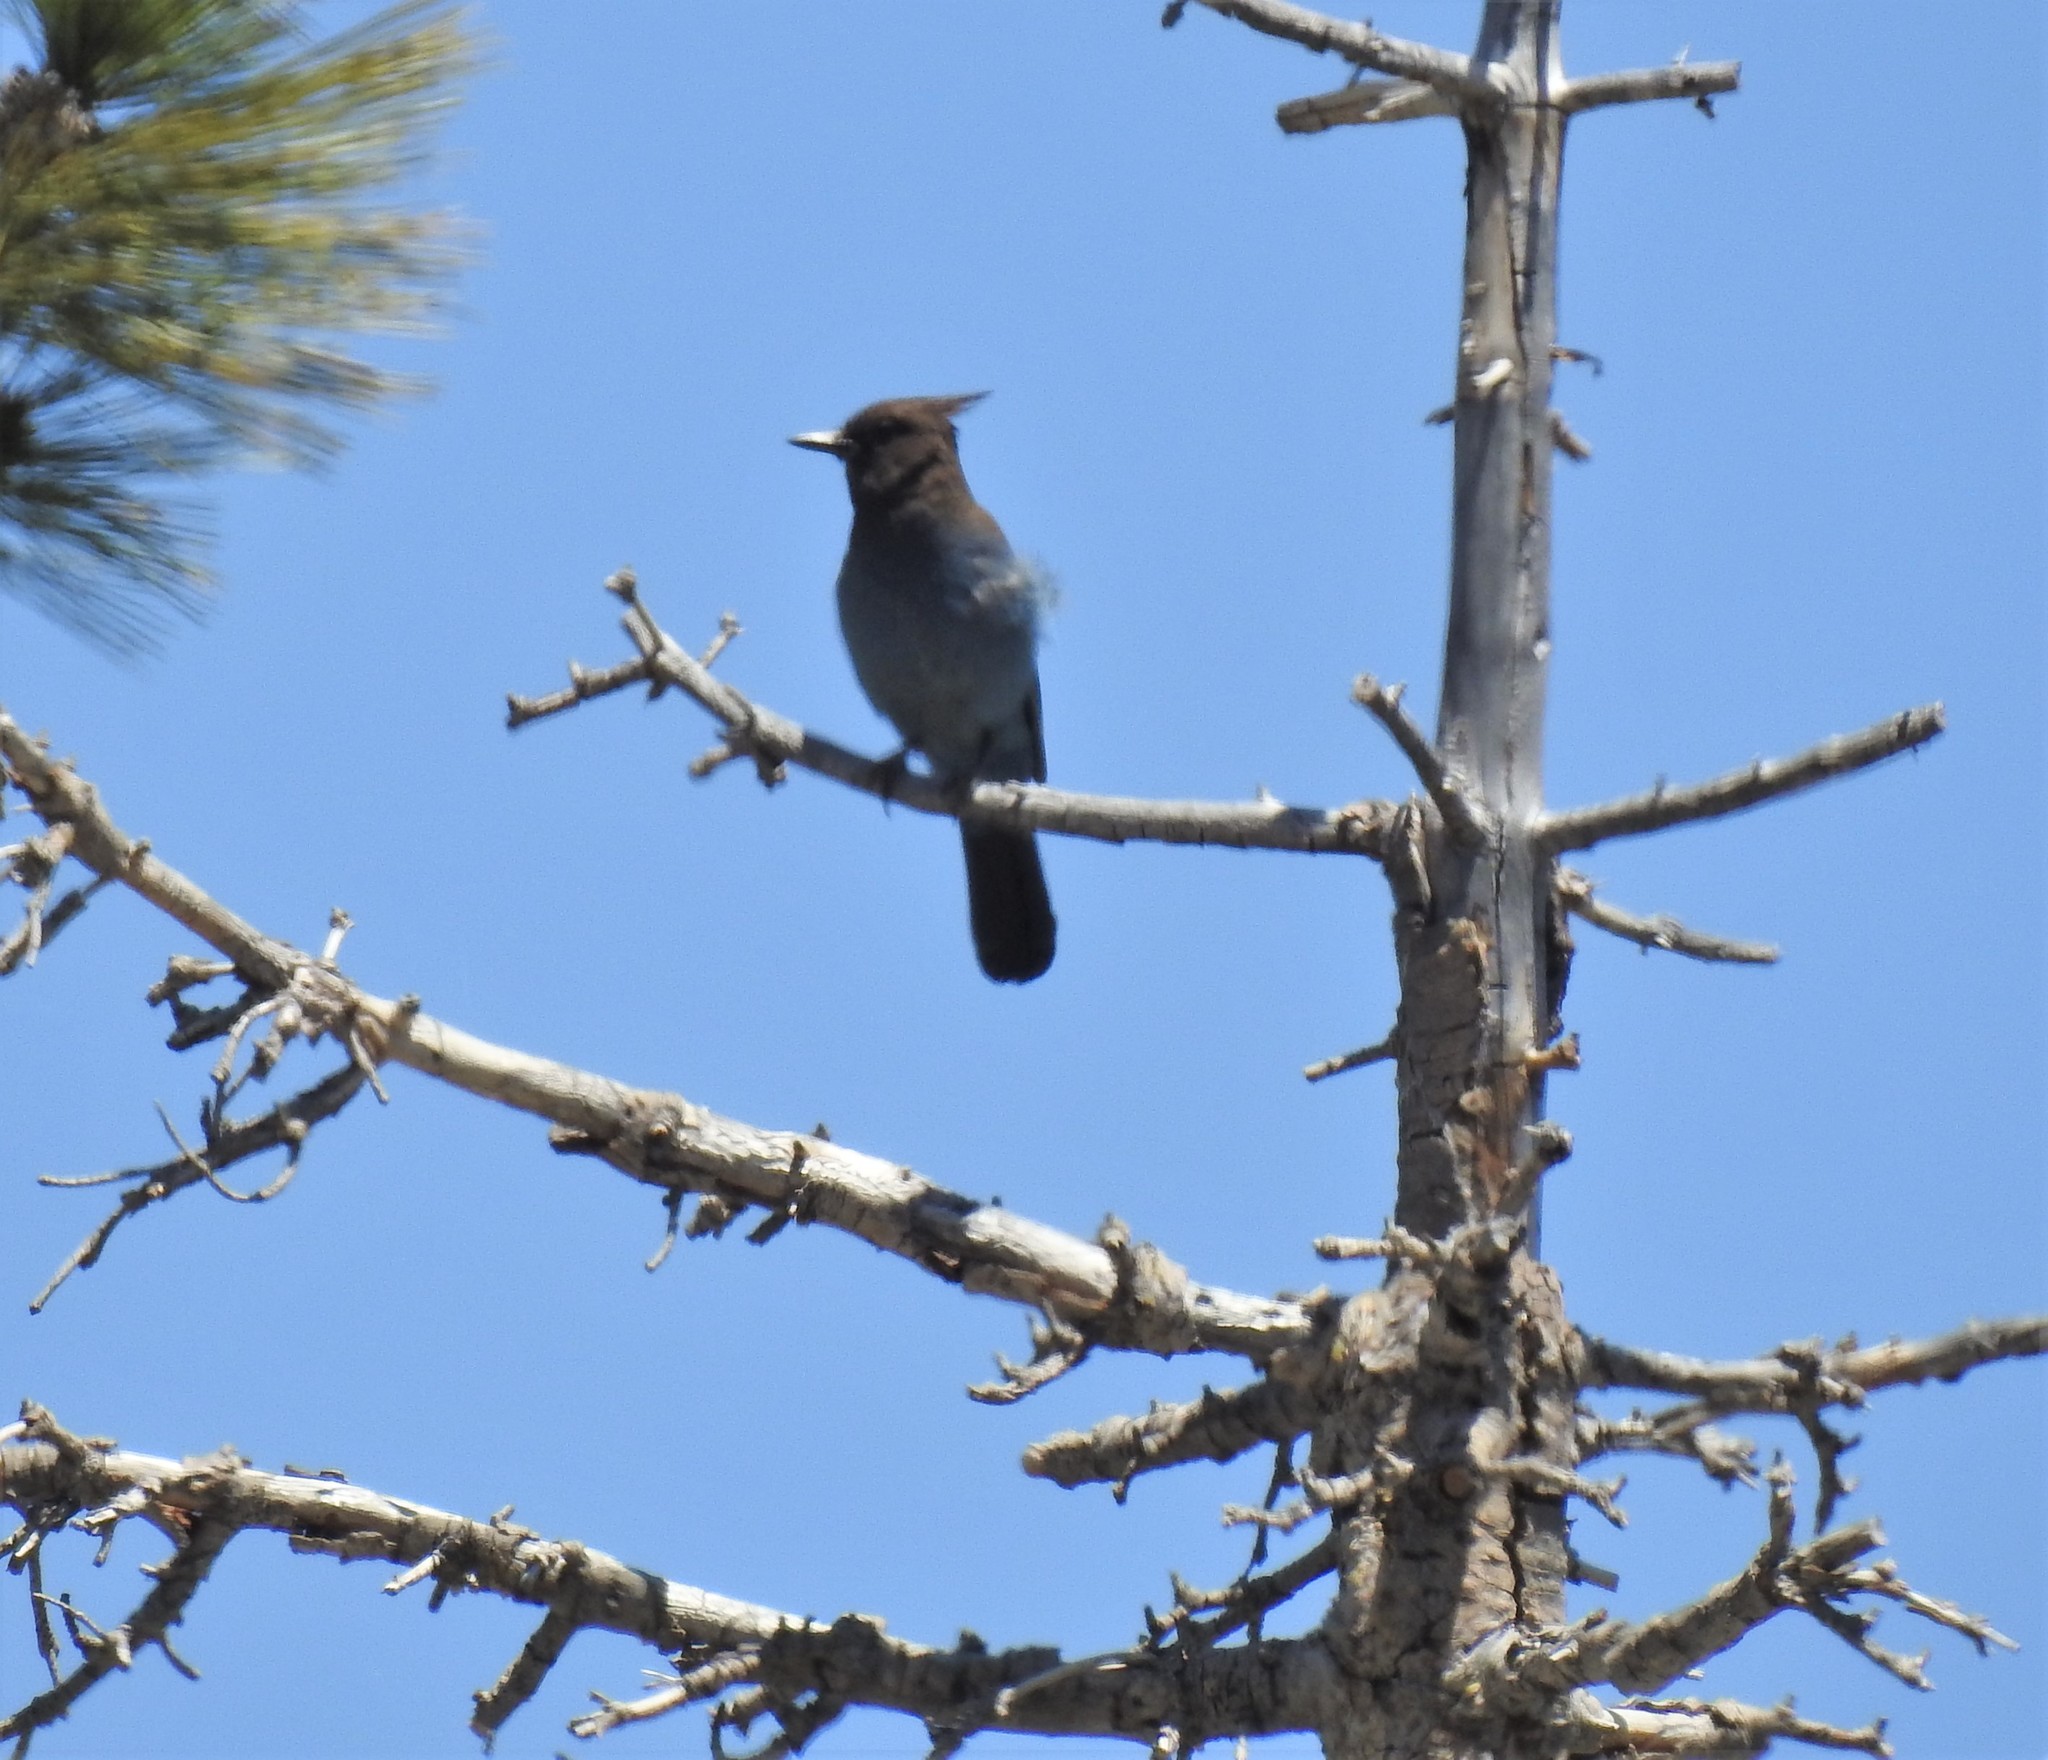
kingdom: Animalia
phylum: Chordata
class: Aves
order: Passeriformes
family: Corvidae
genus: Cyanocitta
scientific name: Cyanocitta stelleri
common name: Steller's jay
